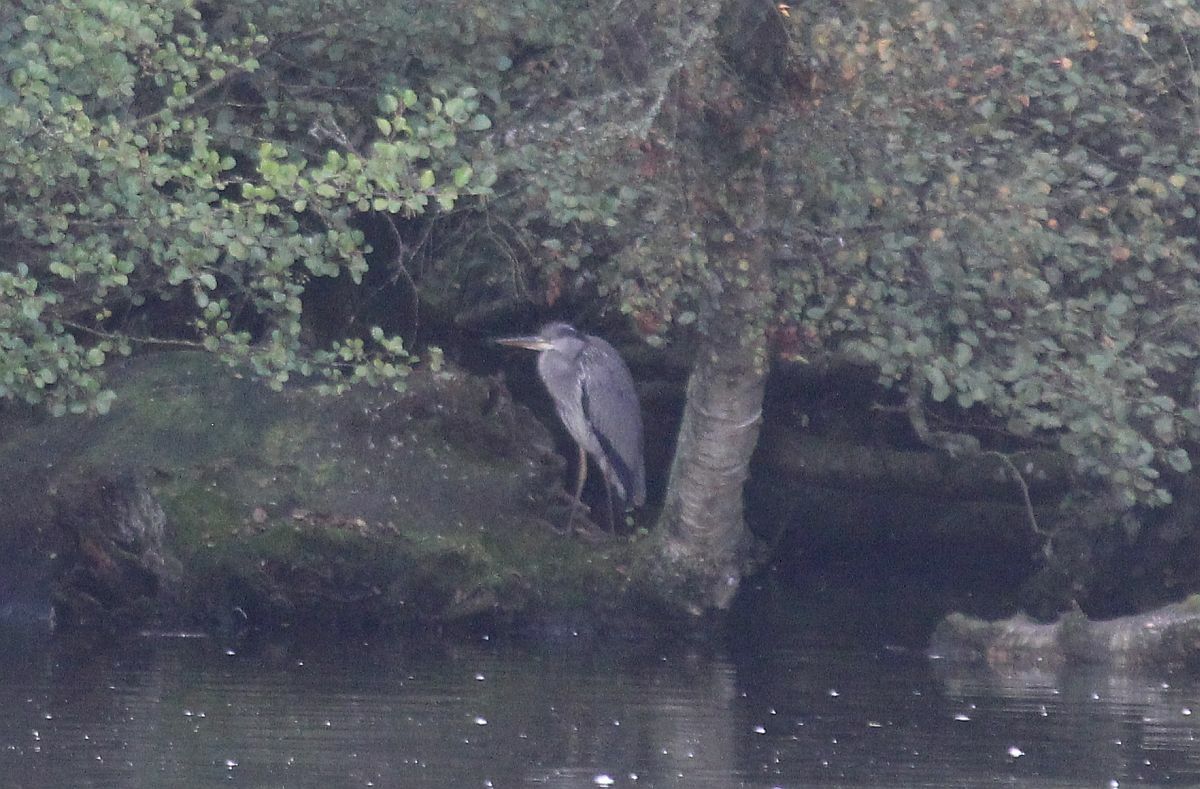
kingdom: Animalia
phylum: Chordata
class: Aves
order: Pelecaniformes
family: Ardeidae
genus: Ardea
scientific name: Ardea cinerea
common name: Grey heron
